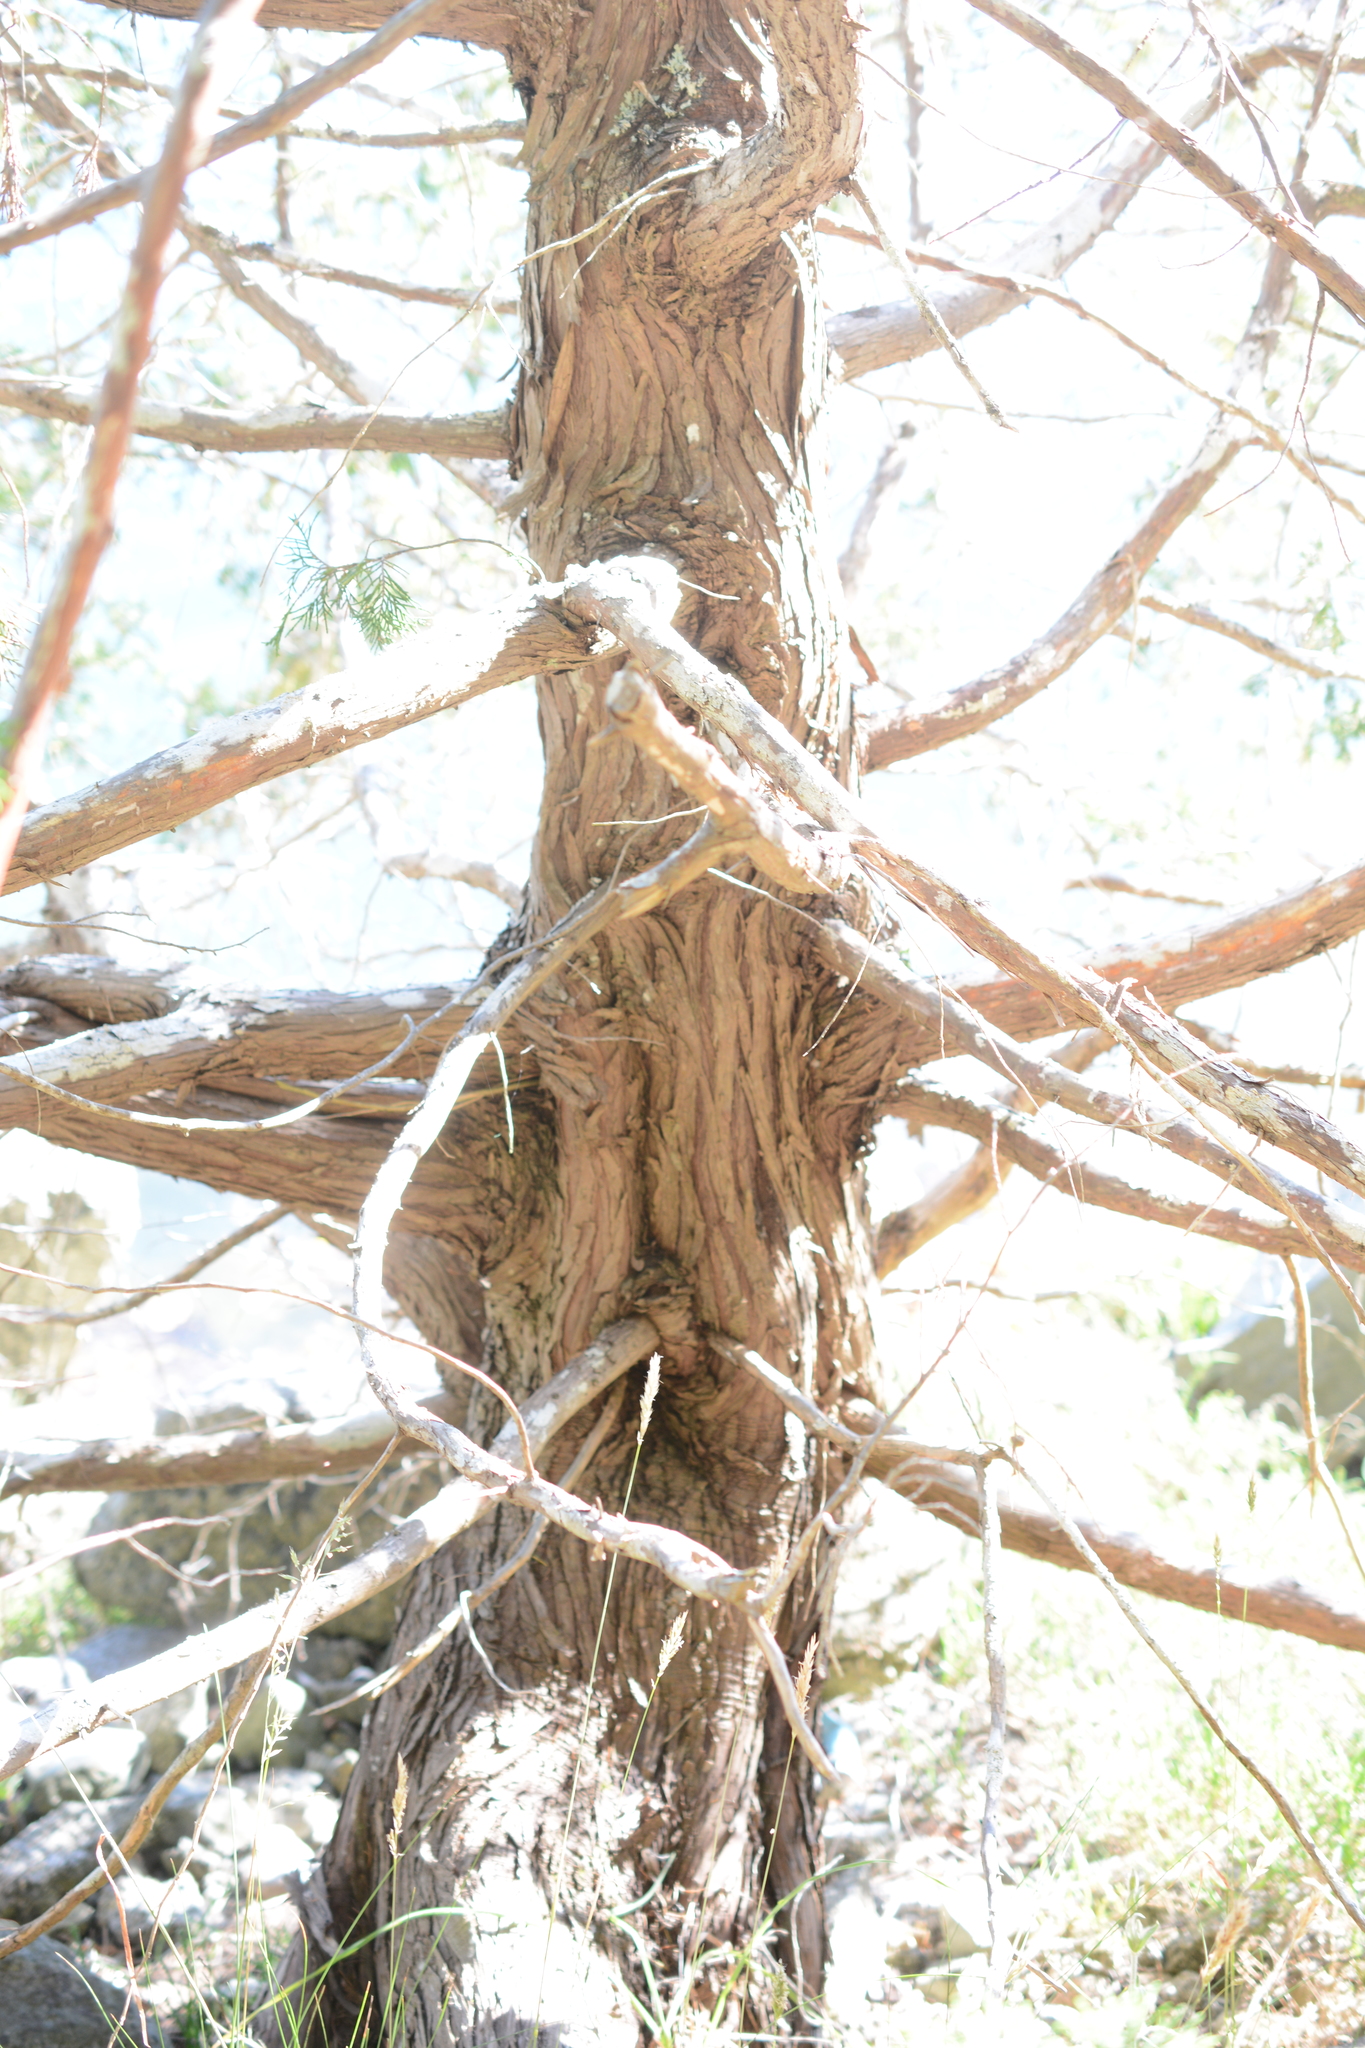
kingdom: Plantae
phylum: Tracheophyta
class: Pinopsida
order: Pinales
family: Cupressaceae
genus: Juniperus
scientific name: Juniperus scopulorum
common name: Rocky mountain juniper
